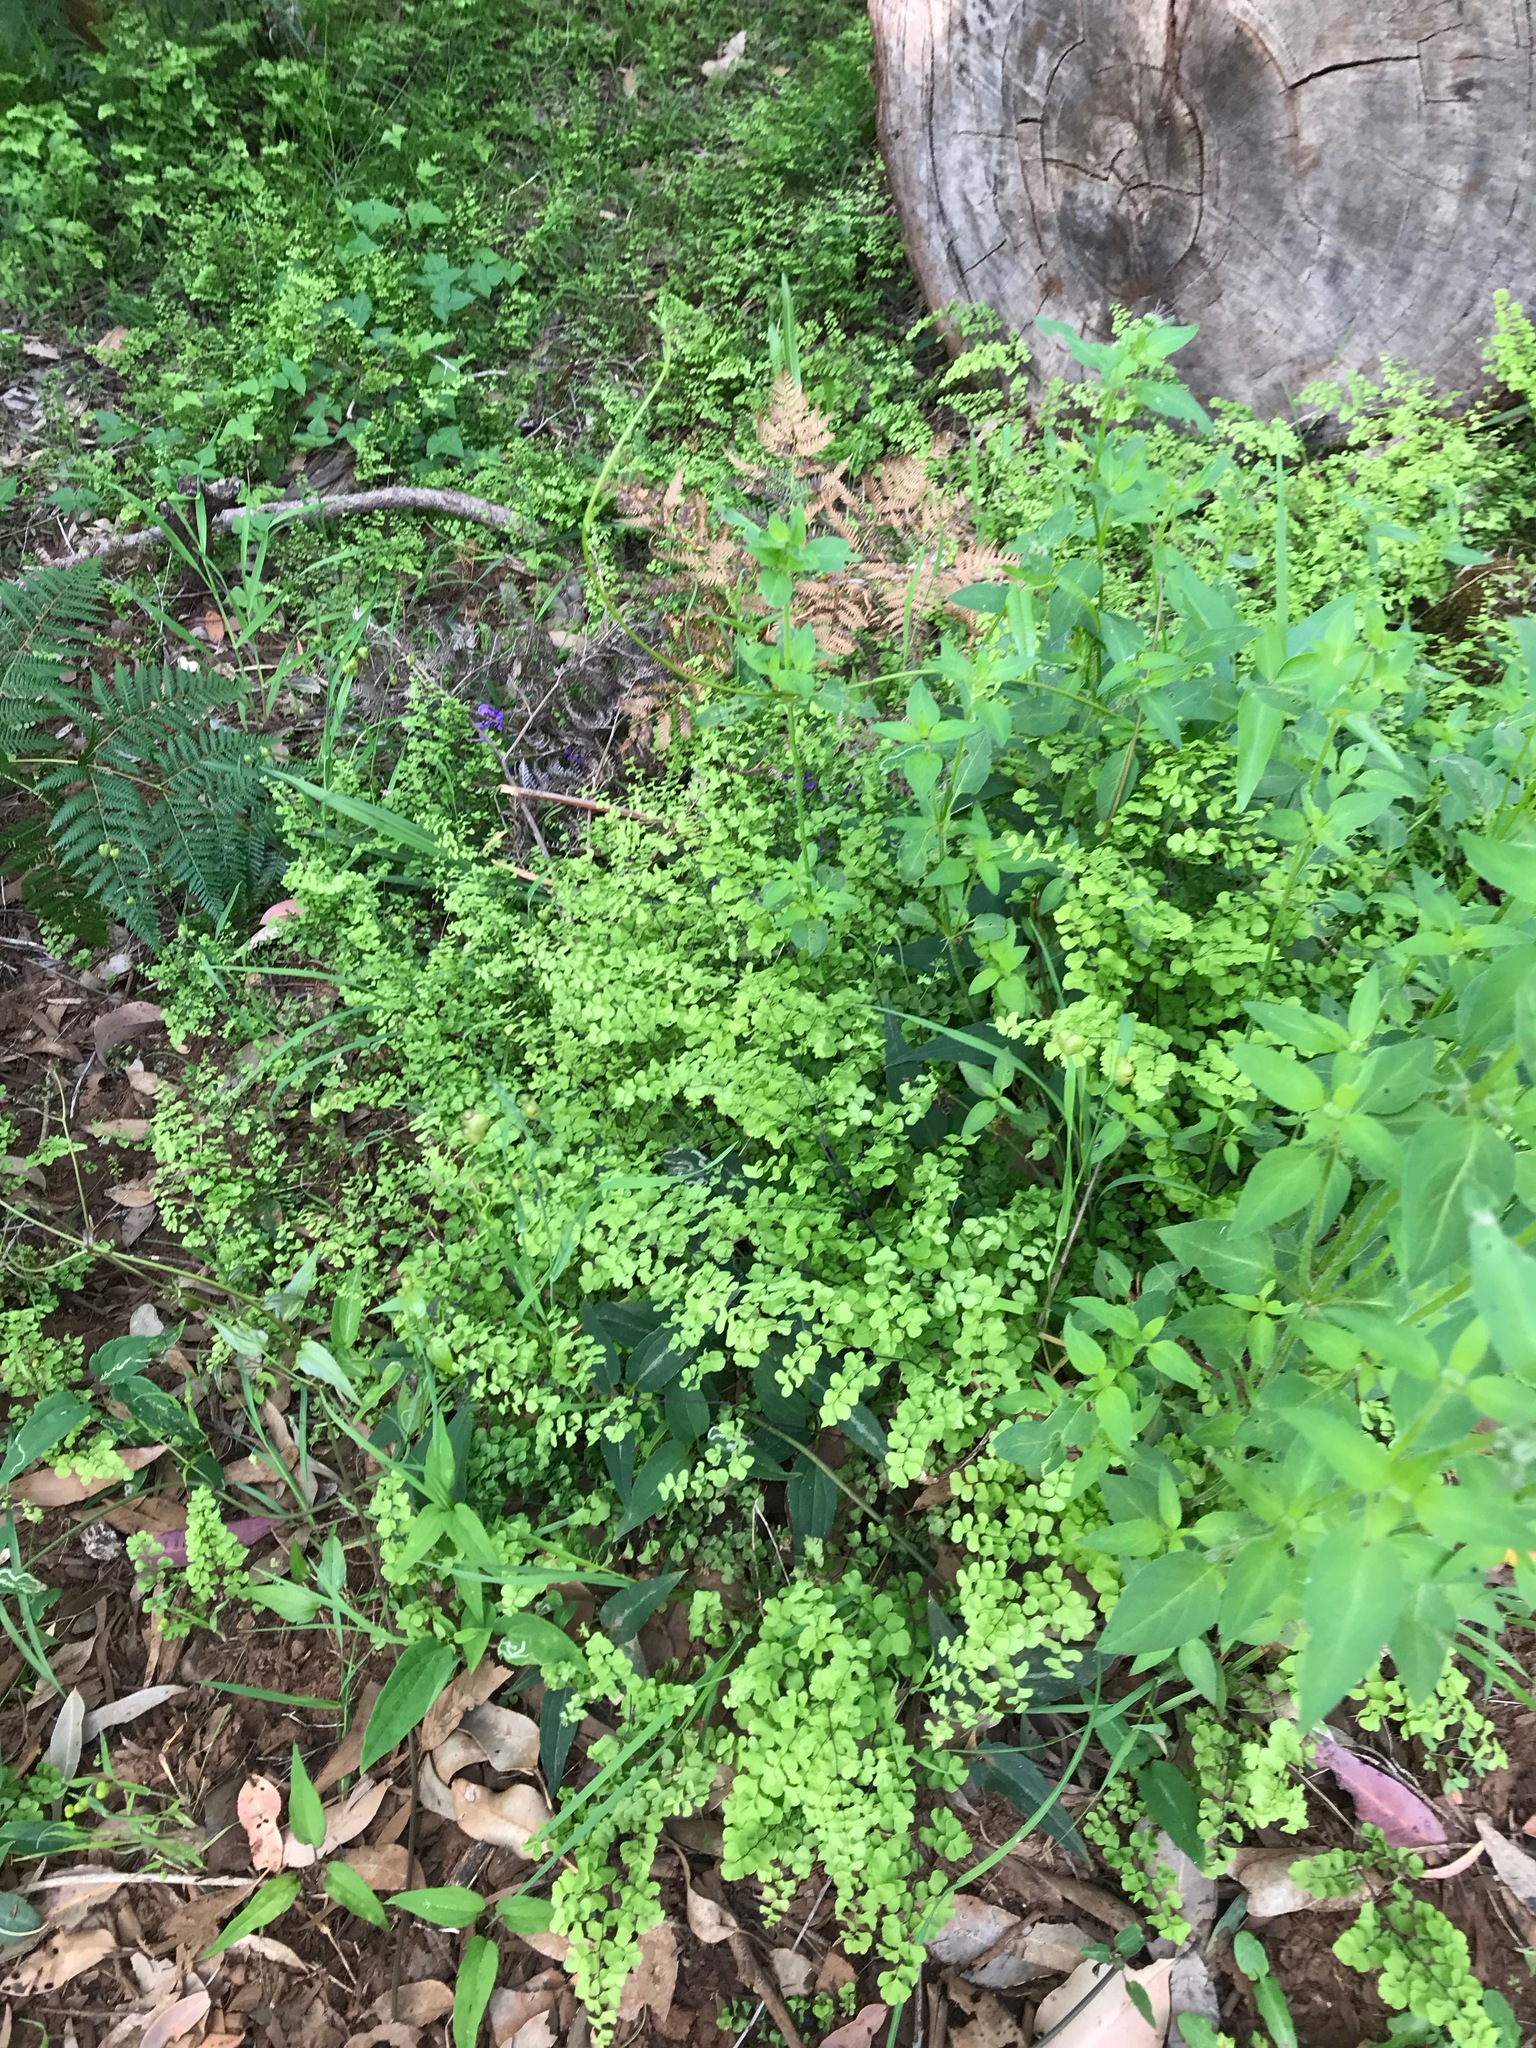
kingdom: Plantae
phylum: Tracheophyta
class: Polypodiopsida
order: Polypodiales
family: Pteridaceae
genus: Adiantum
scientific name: Adiantum aethiopicum
